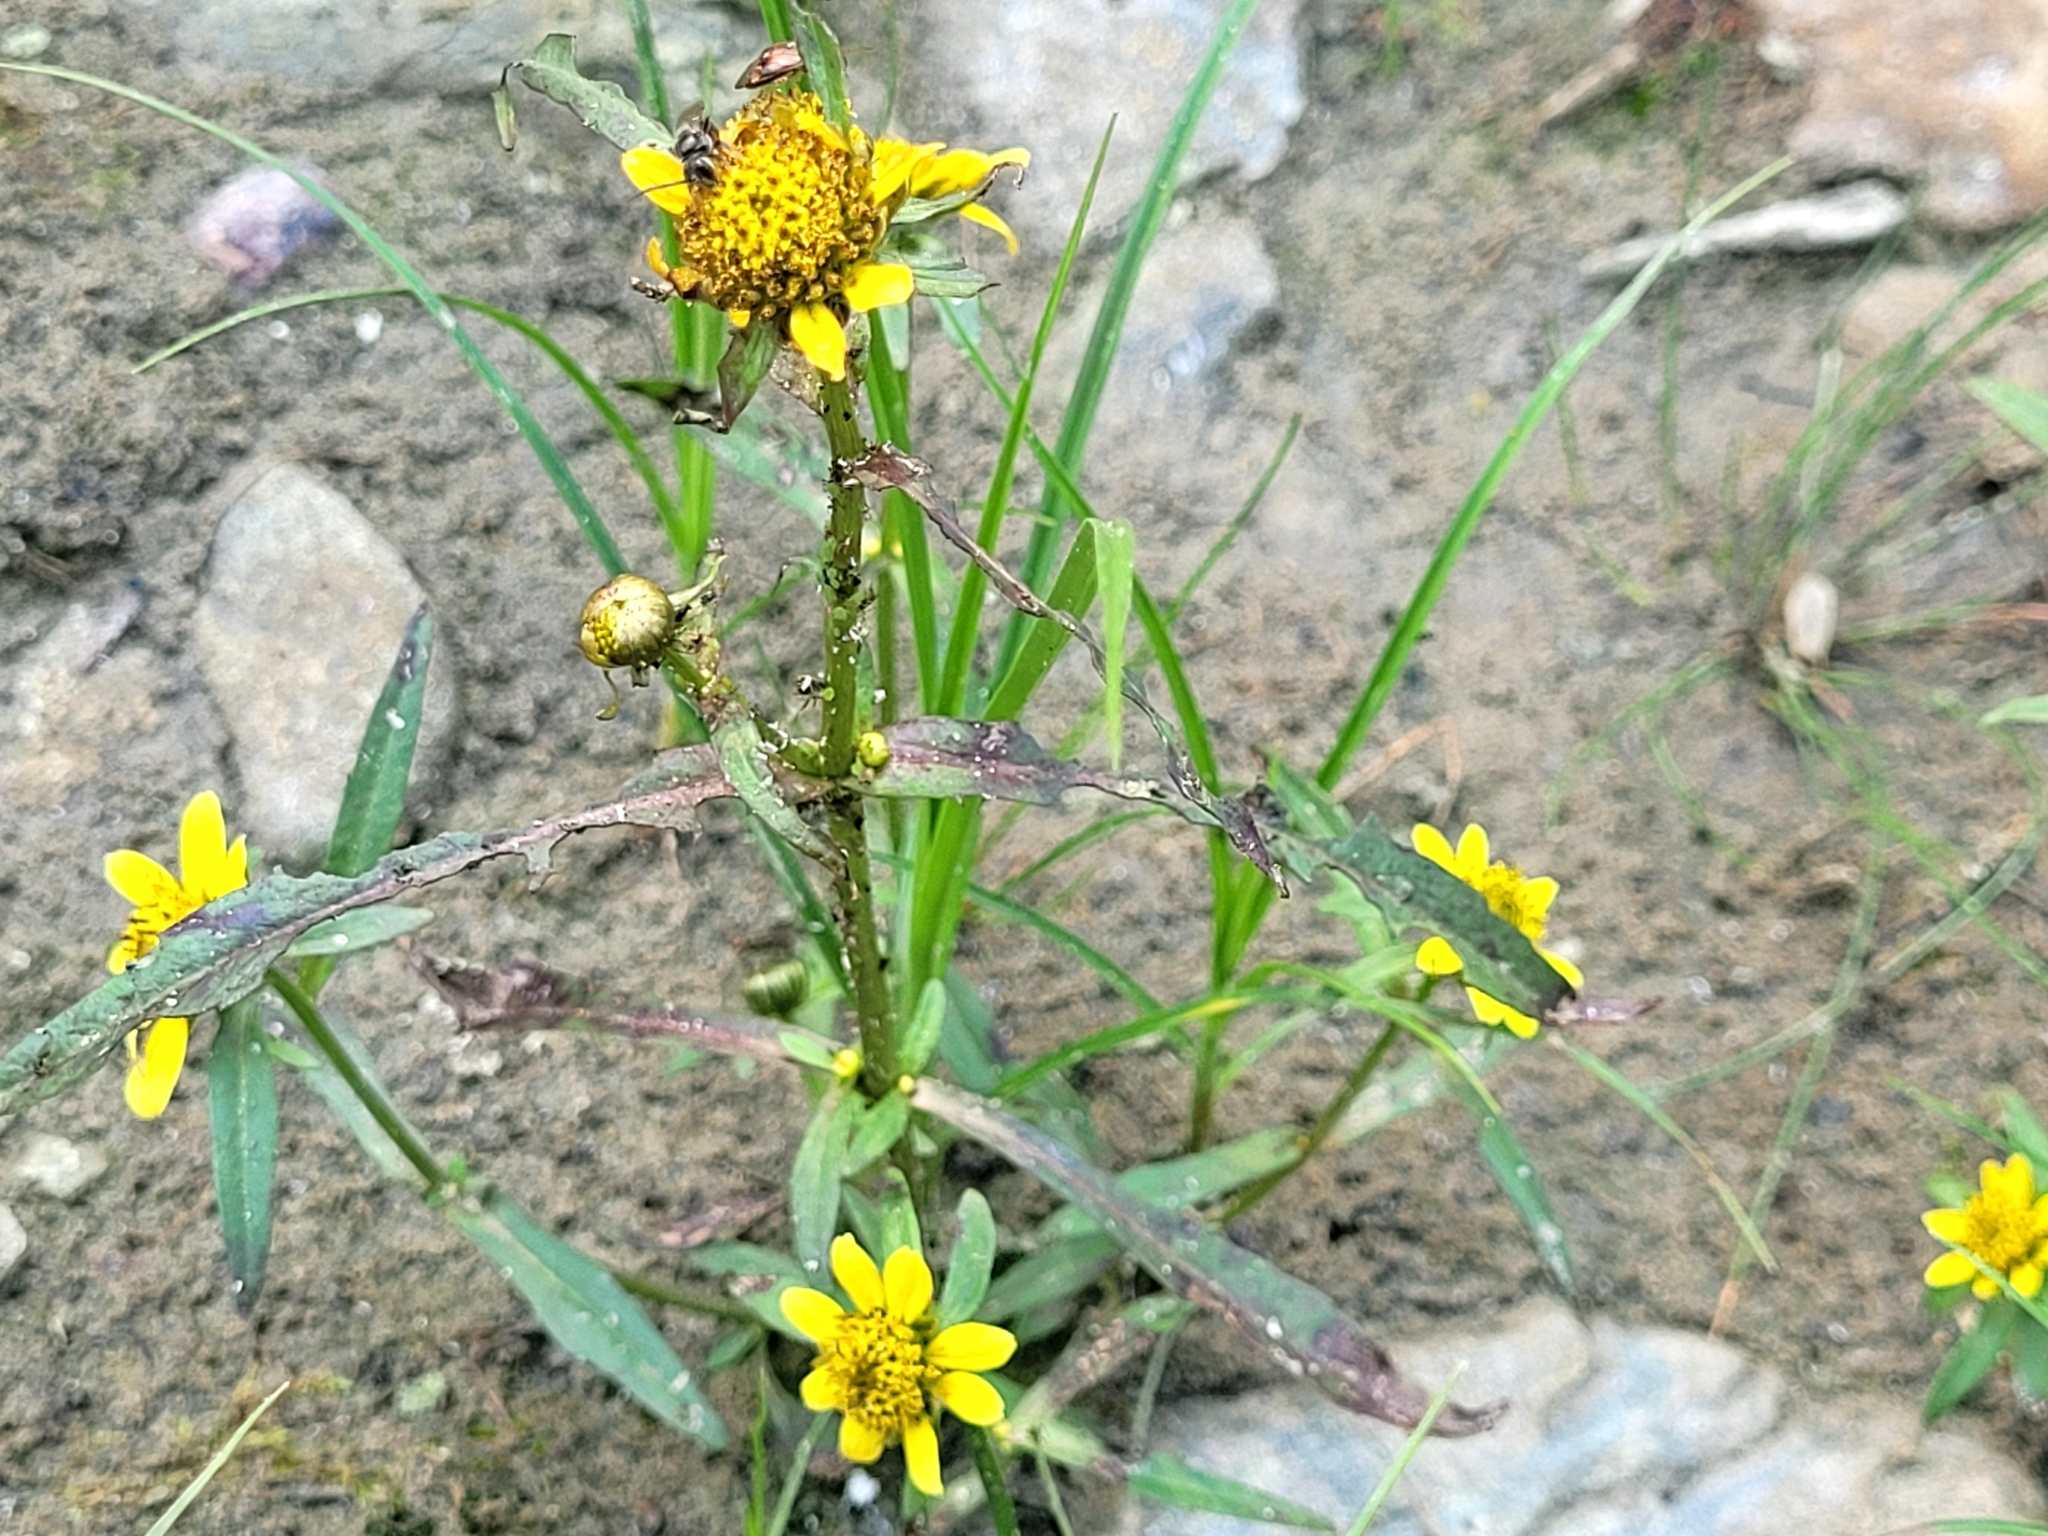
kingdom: Plantae
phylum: Tracheophyta
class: Magnoliopsida
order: Asterales
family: Asteraceae
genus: Bidens
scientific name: Bidens cernua
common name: Nodding bur-marigold
